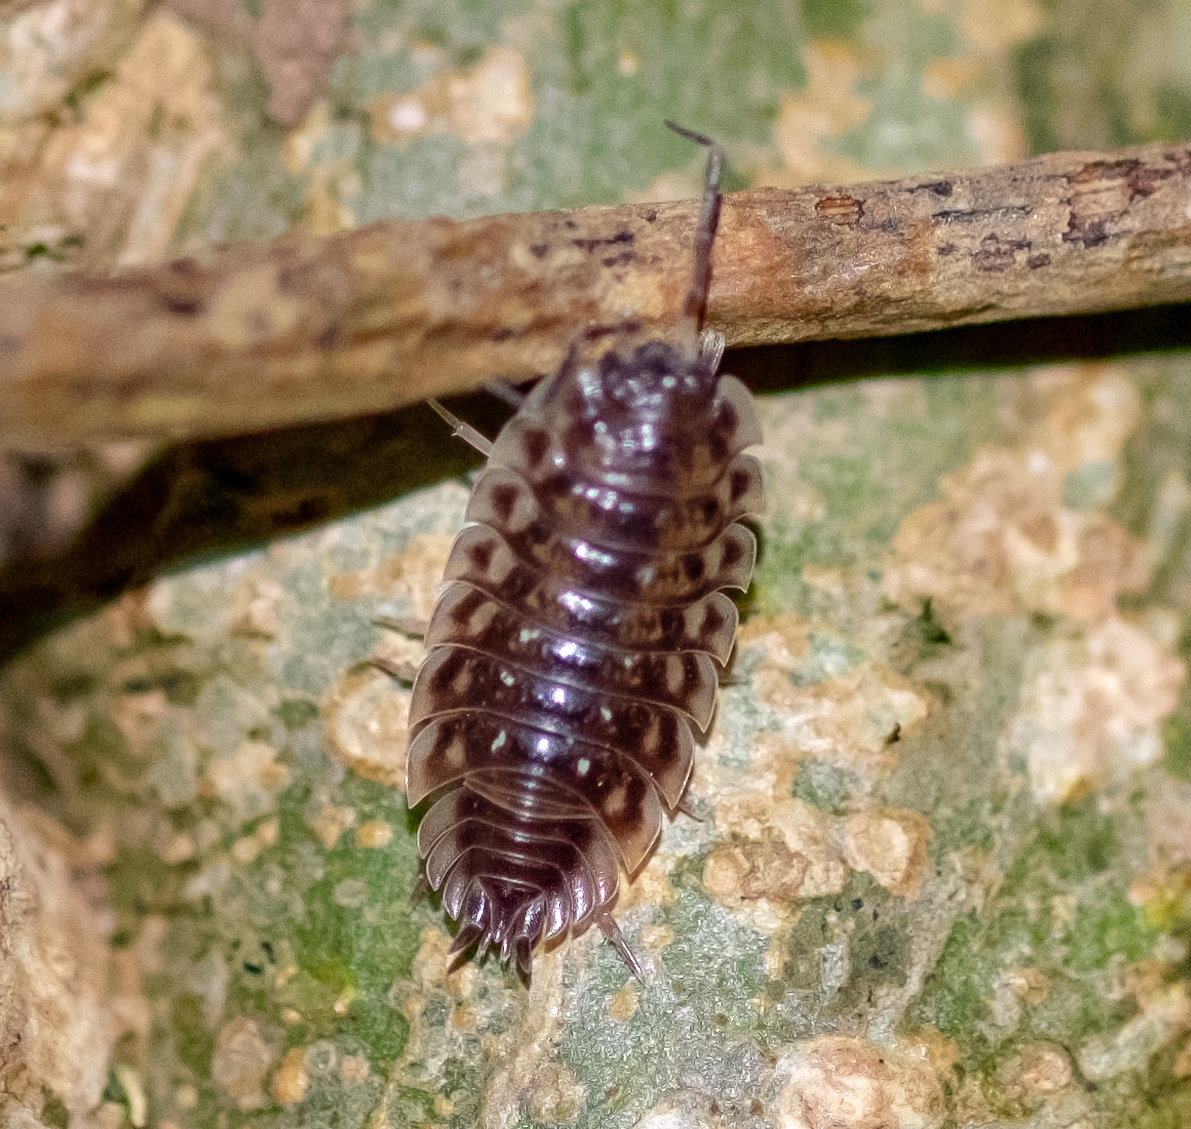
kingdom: Animalia
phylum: Arthropoda
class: Malacostraca
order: Isopoda
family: Oniscidae
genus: Oniscus
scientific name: Oniscus asellus
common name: Common shiny woodlouse
